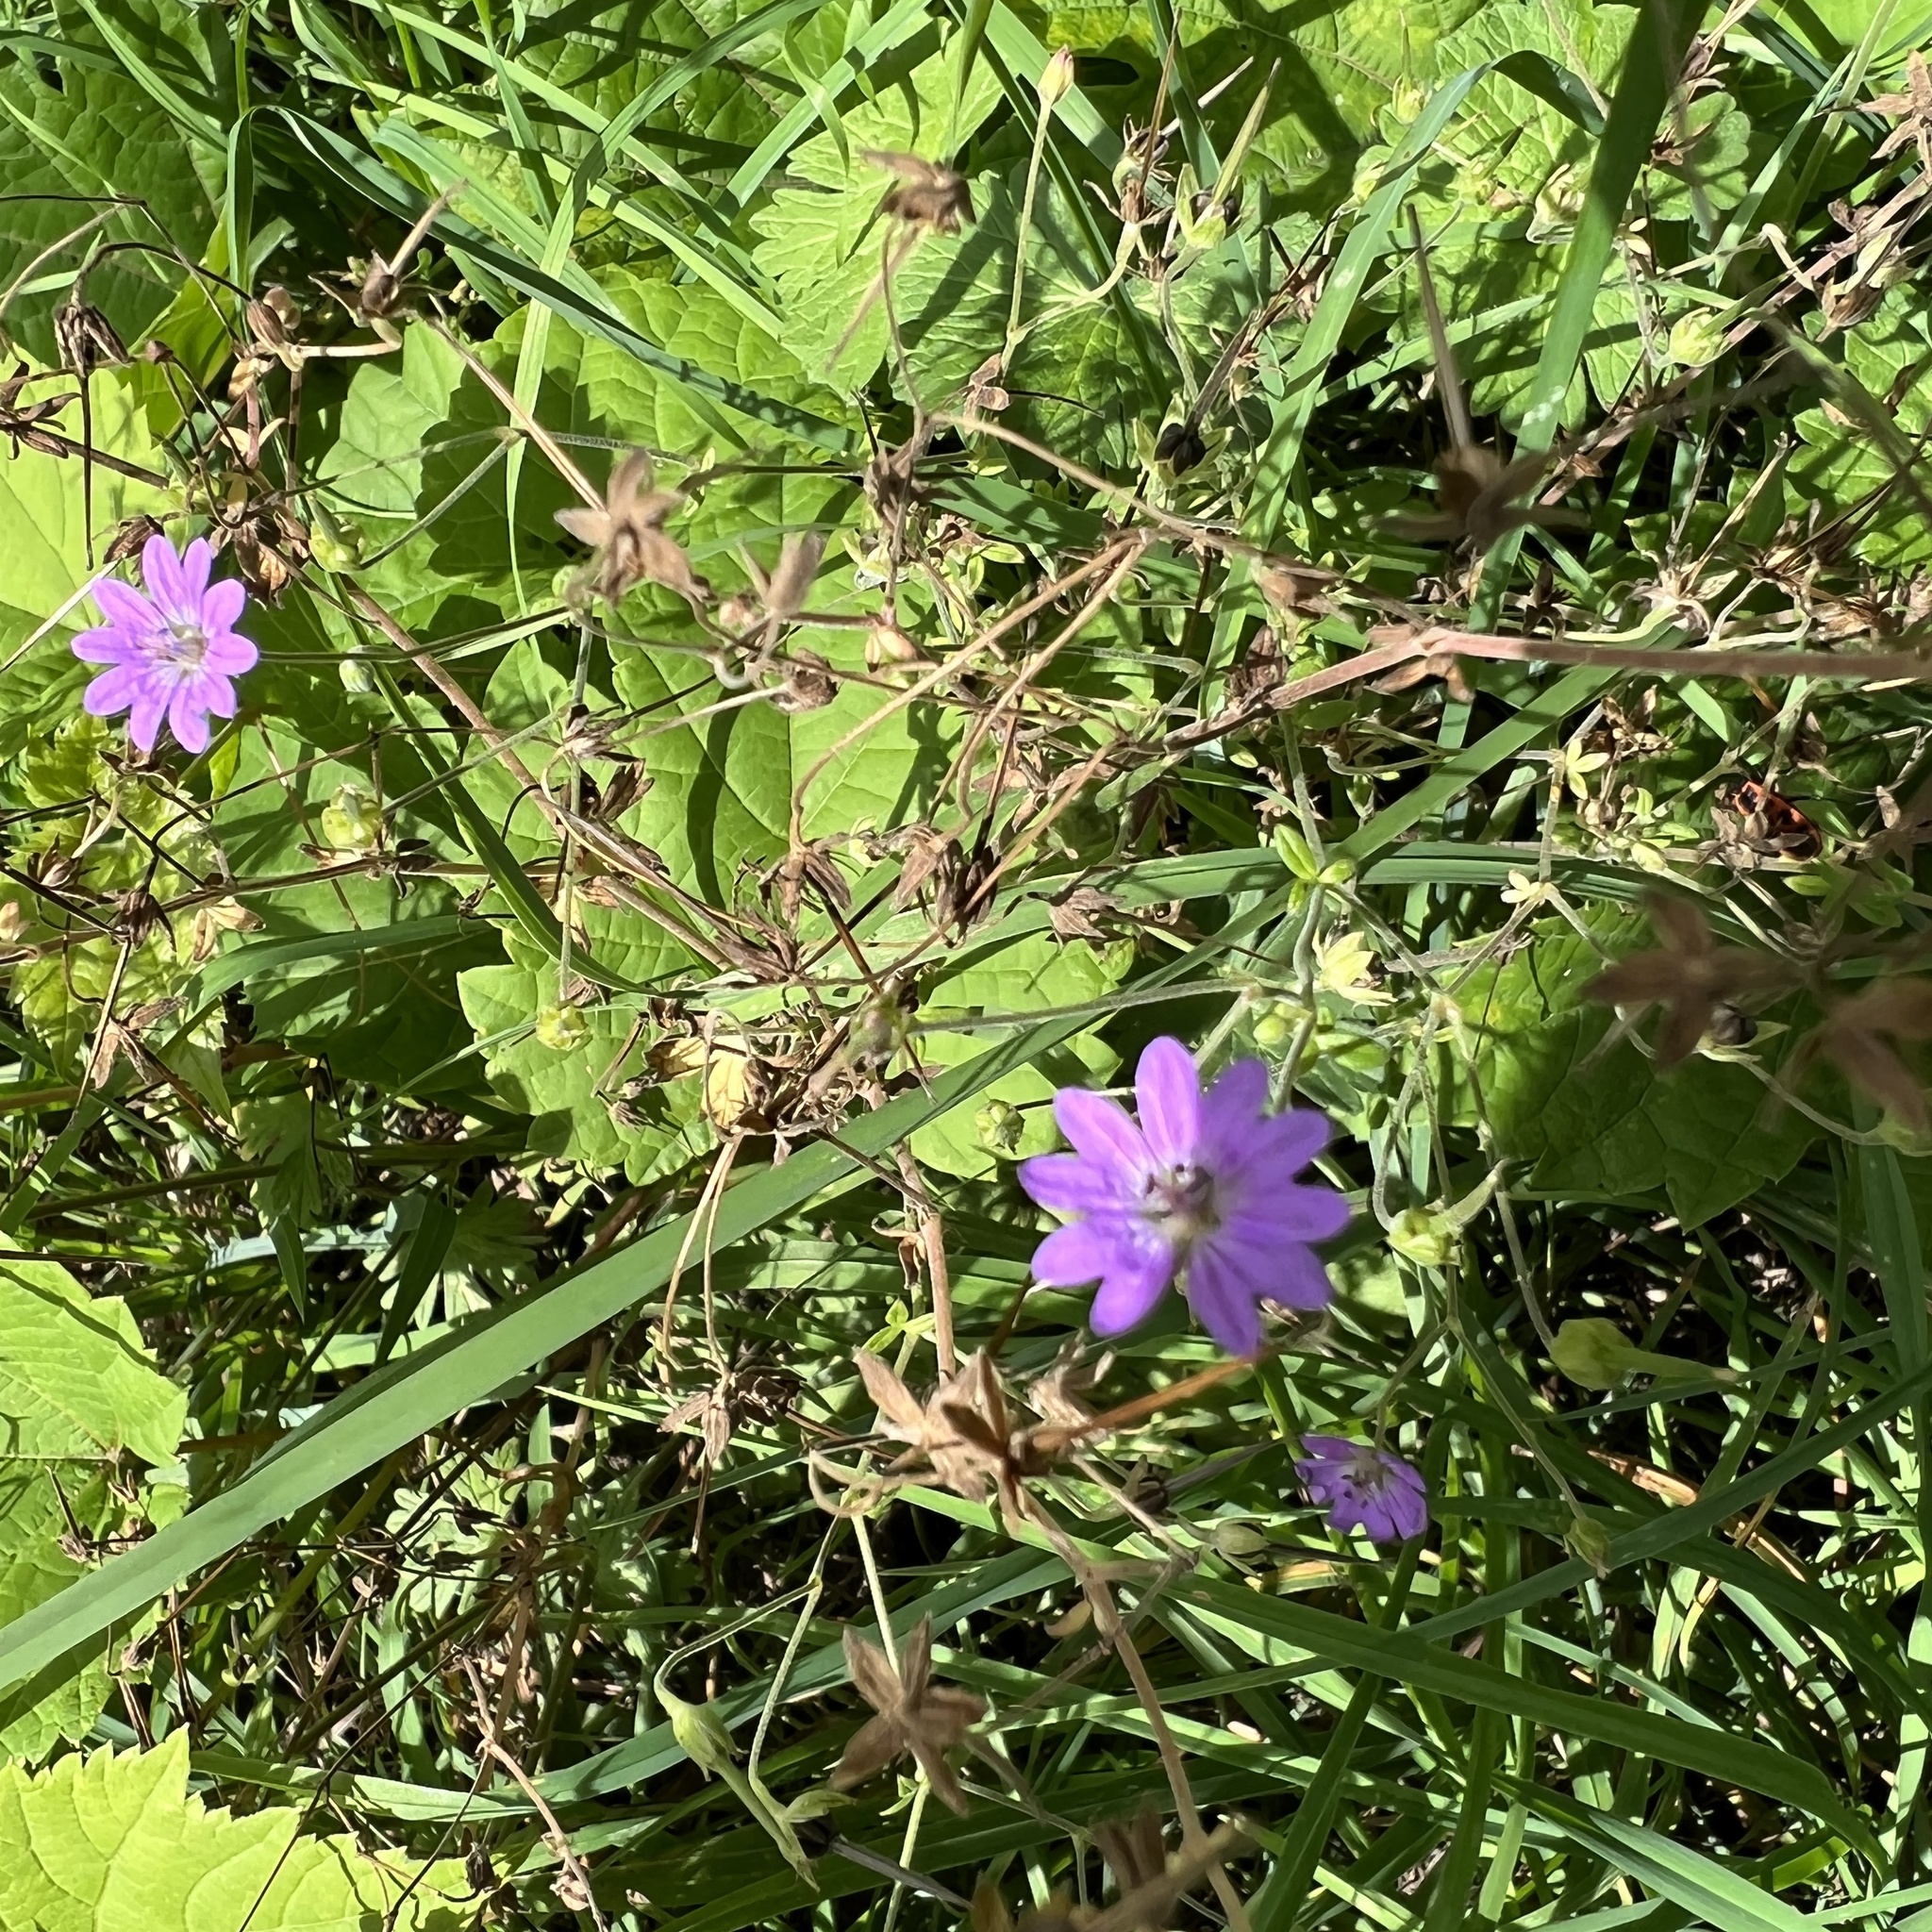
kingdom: Plantae
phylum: Tracheophyta
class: Magnoliopsida
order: Geraniales
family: Geraniaceae
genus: Geranium
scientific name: Geranium pyrenaicum
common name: Hedgerow crane's-bill
